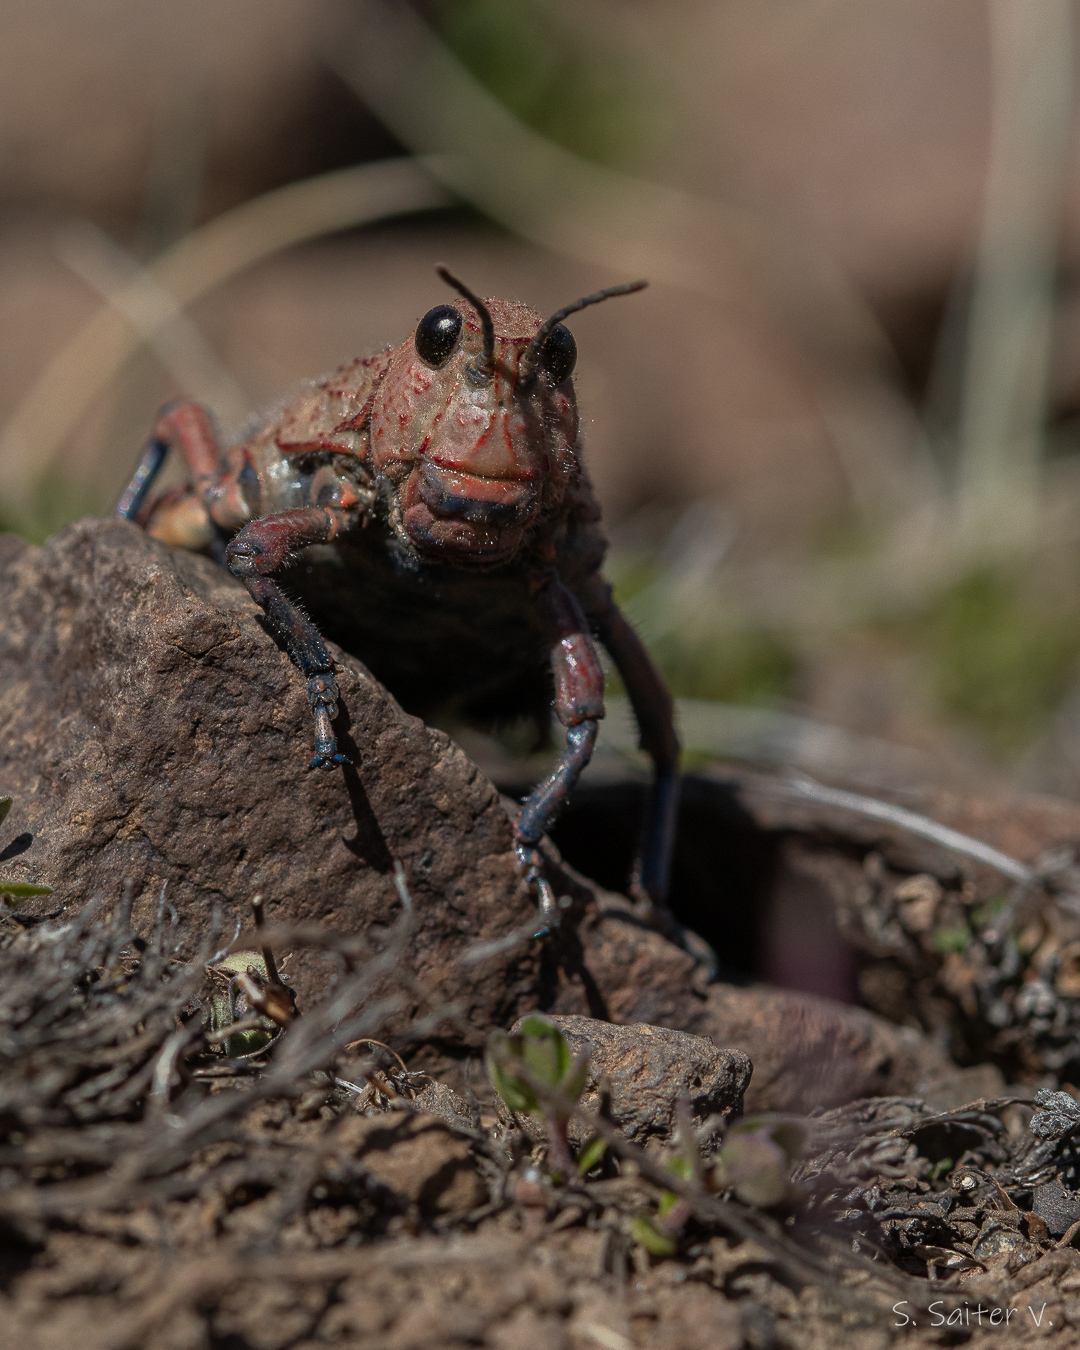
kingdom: Animalia
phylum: Arthropoda
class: Insecta
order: Orthoptera
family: Tristiridae
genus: Eremopachys
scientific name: Eremopachys bergii
